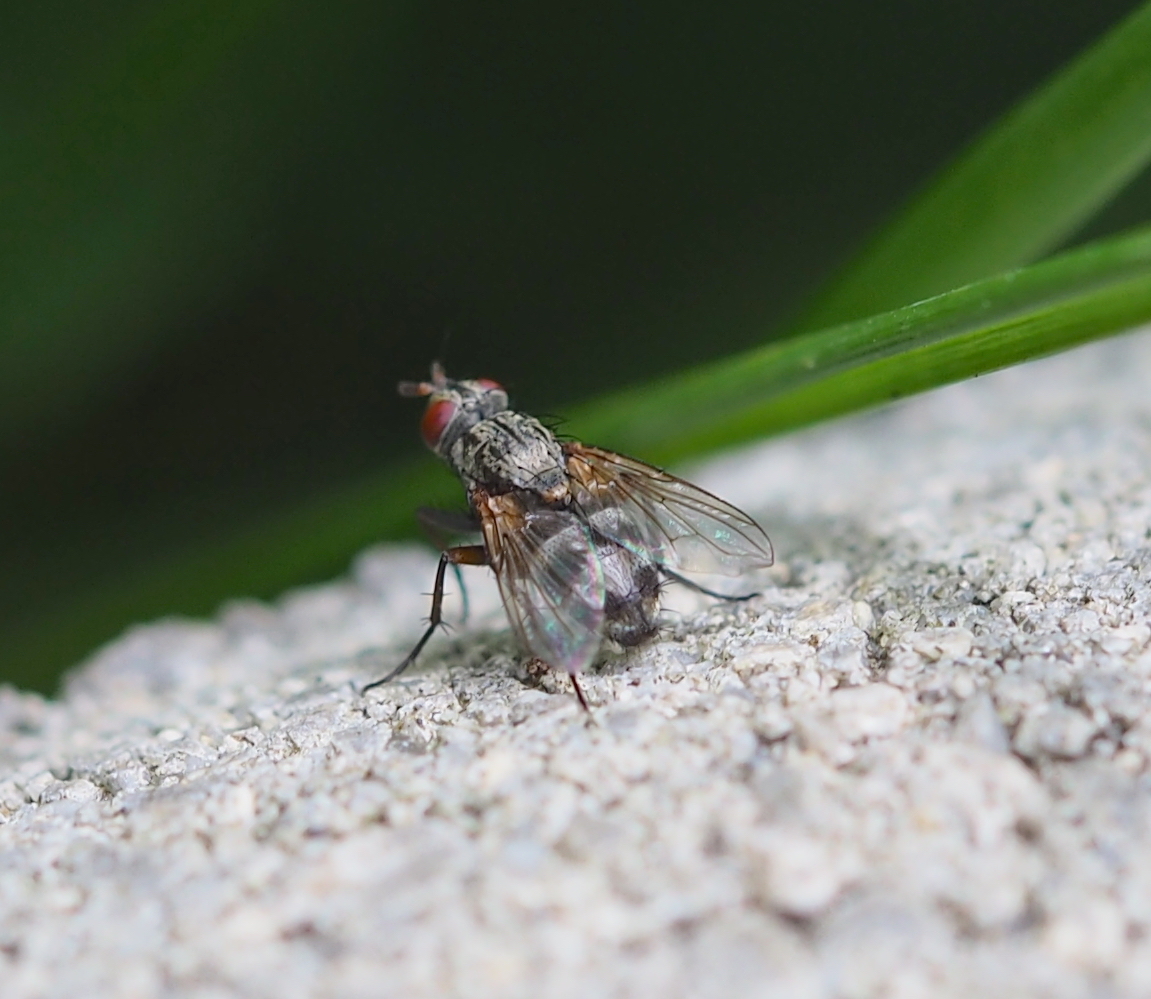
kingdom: Animalia
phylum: Arthropoda
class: Insecta
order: Diptera
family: Calliphoridae
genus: Tricogena
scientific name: Tricogena rubricosa
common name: Red-shinned woodlouse-fly
